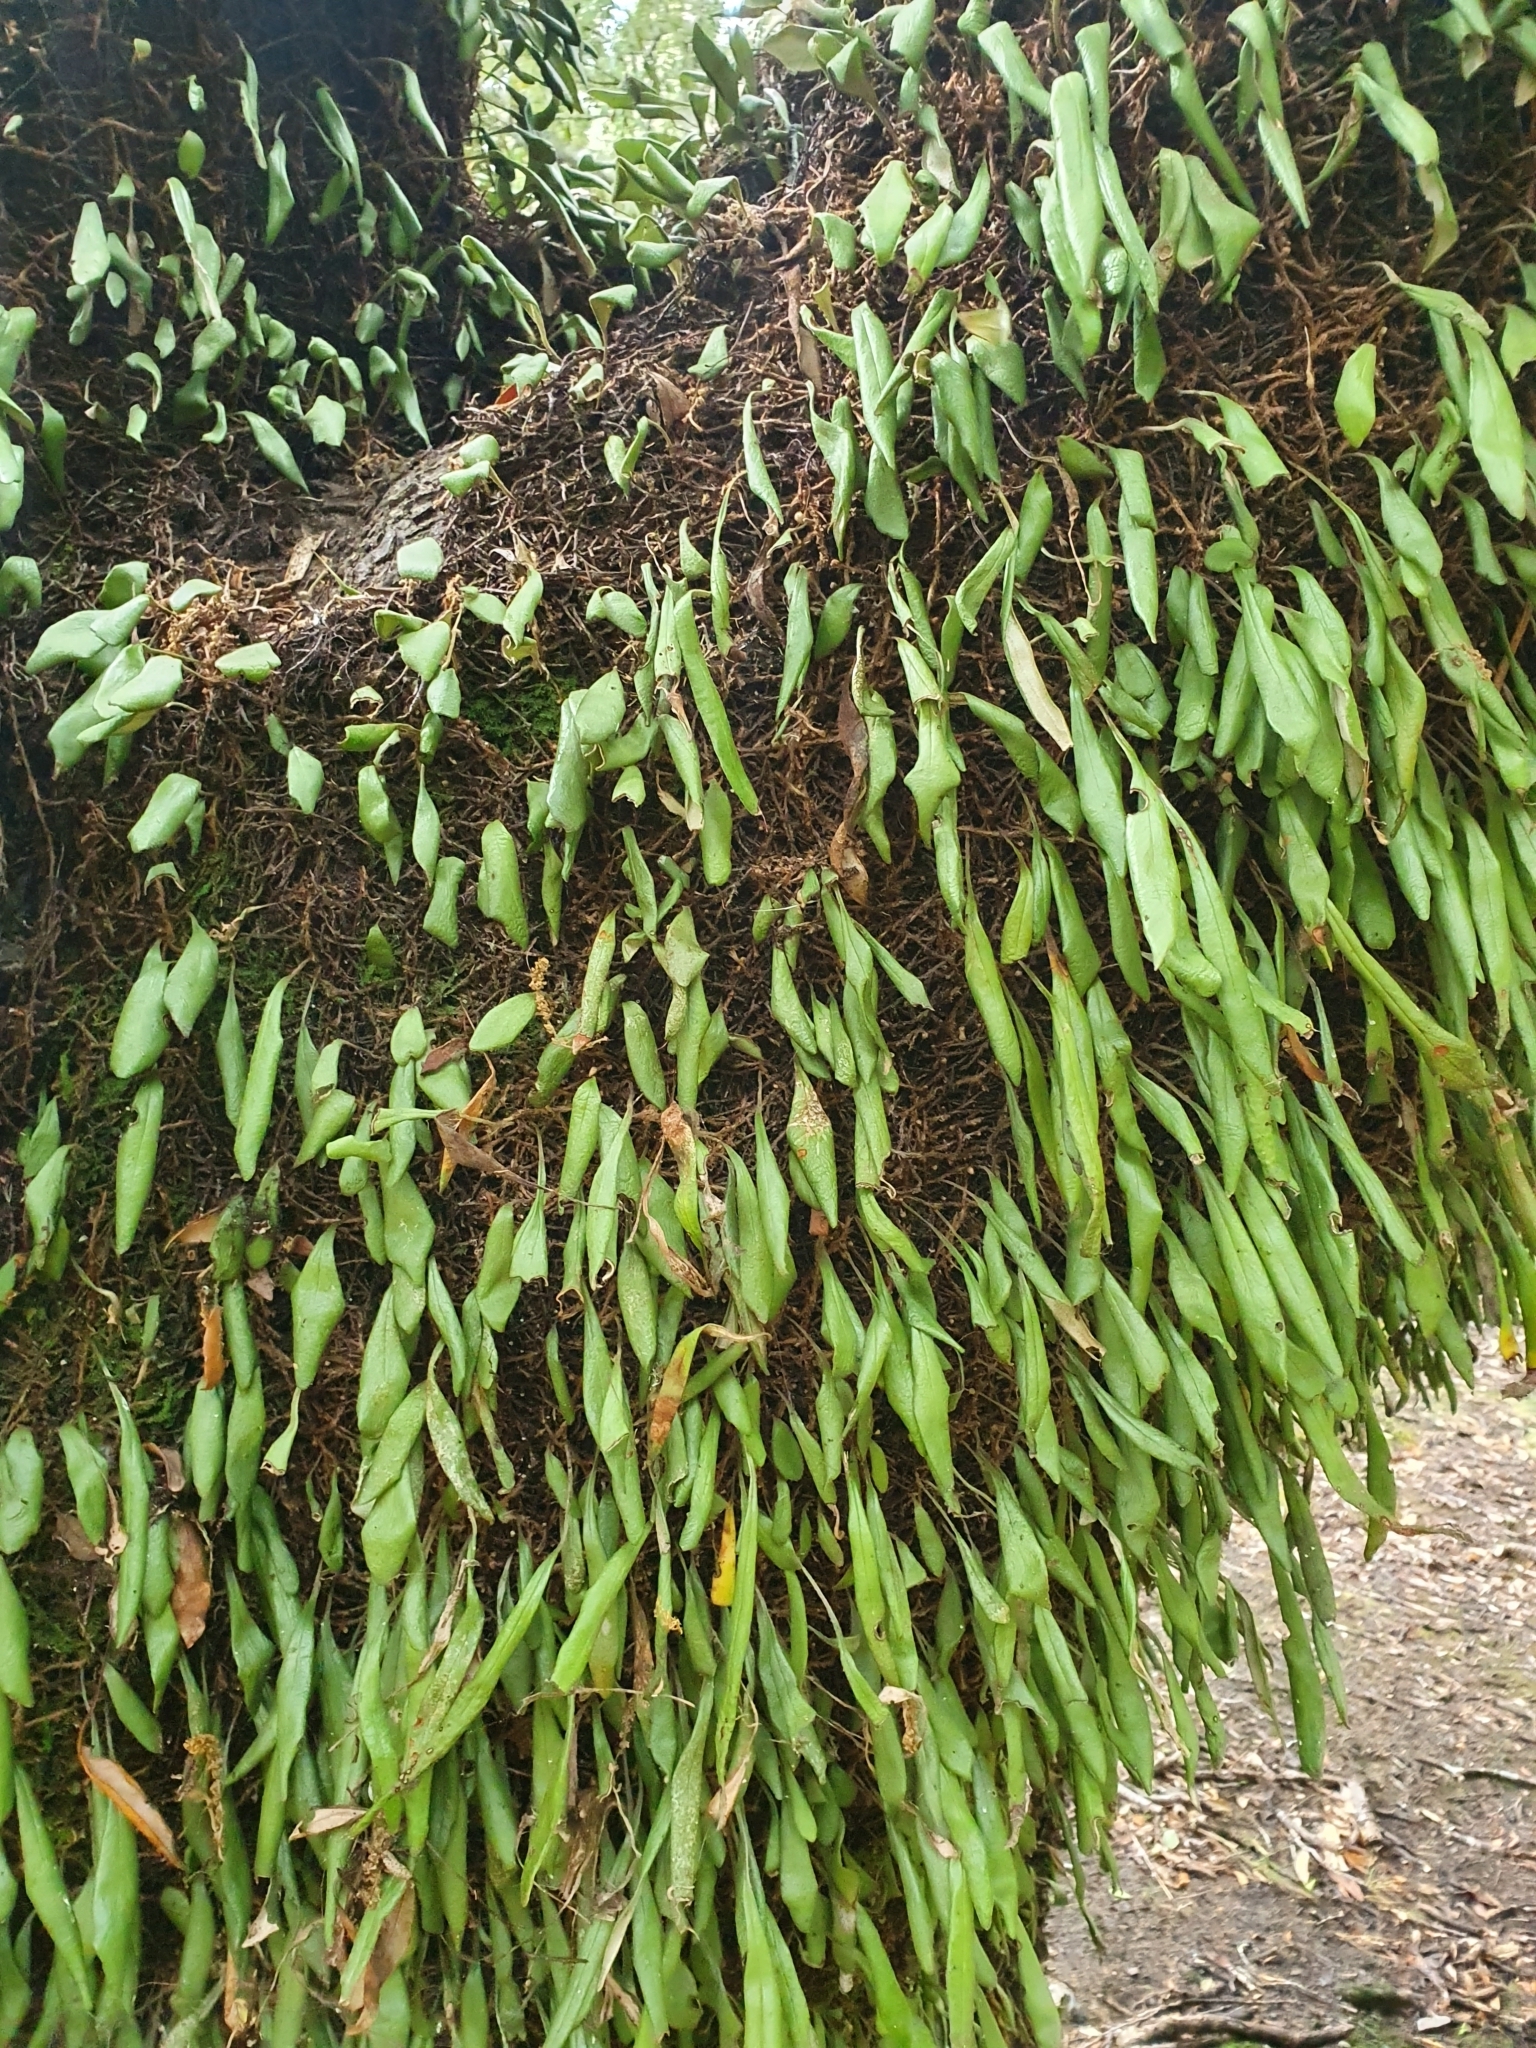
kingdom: Plantae
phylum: Tracheophyta
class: Polypodiopsida
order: Polypodiales
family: Polypodiaceae
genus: Pyrrosia
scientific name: Pyrrosia eleagnifolia
